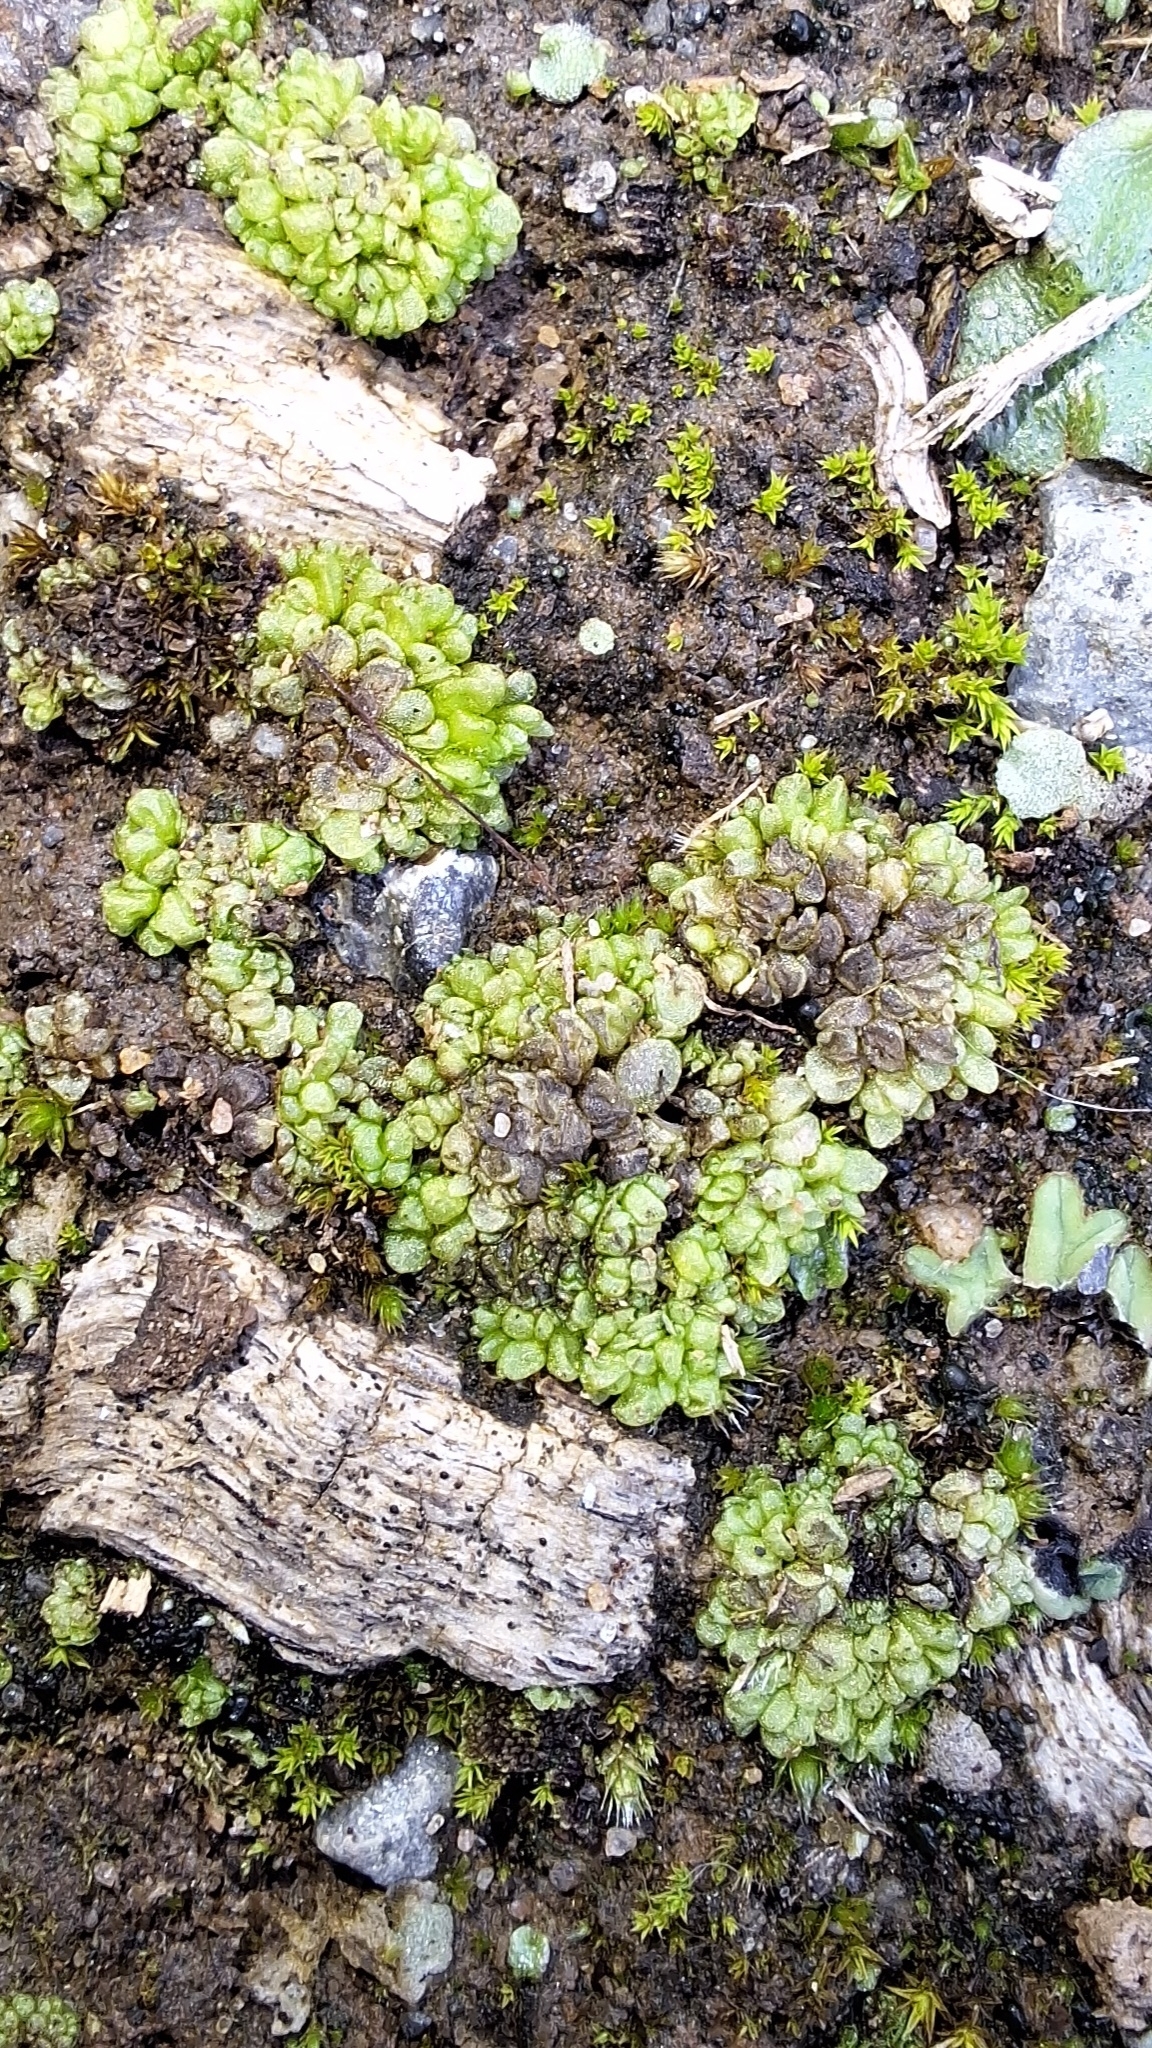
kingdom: Plantae
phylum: Marchantiophyta
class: Marchantiopsida
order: Sphaerocarpales
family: Sphaerocarpaceae
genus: Sphaerocarpos
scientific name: Sphaerocarpos texanus
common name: Texas balloonwort
